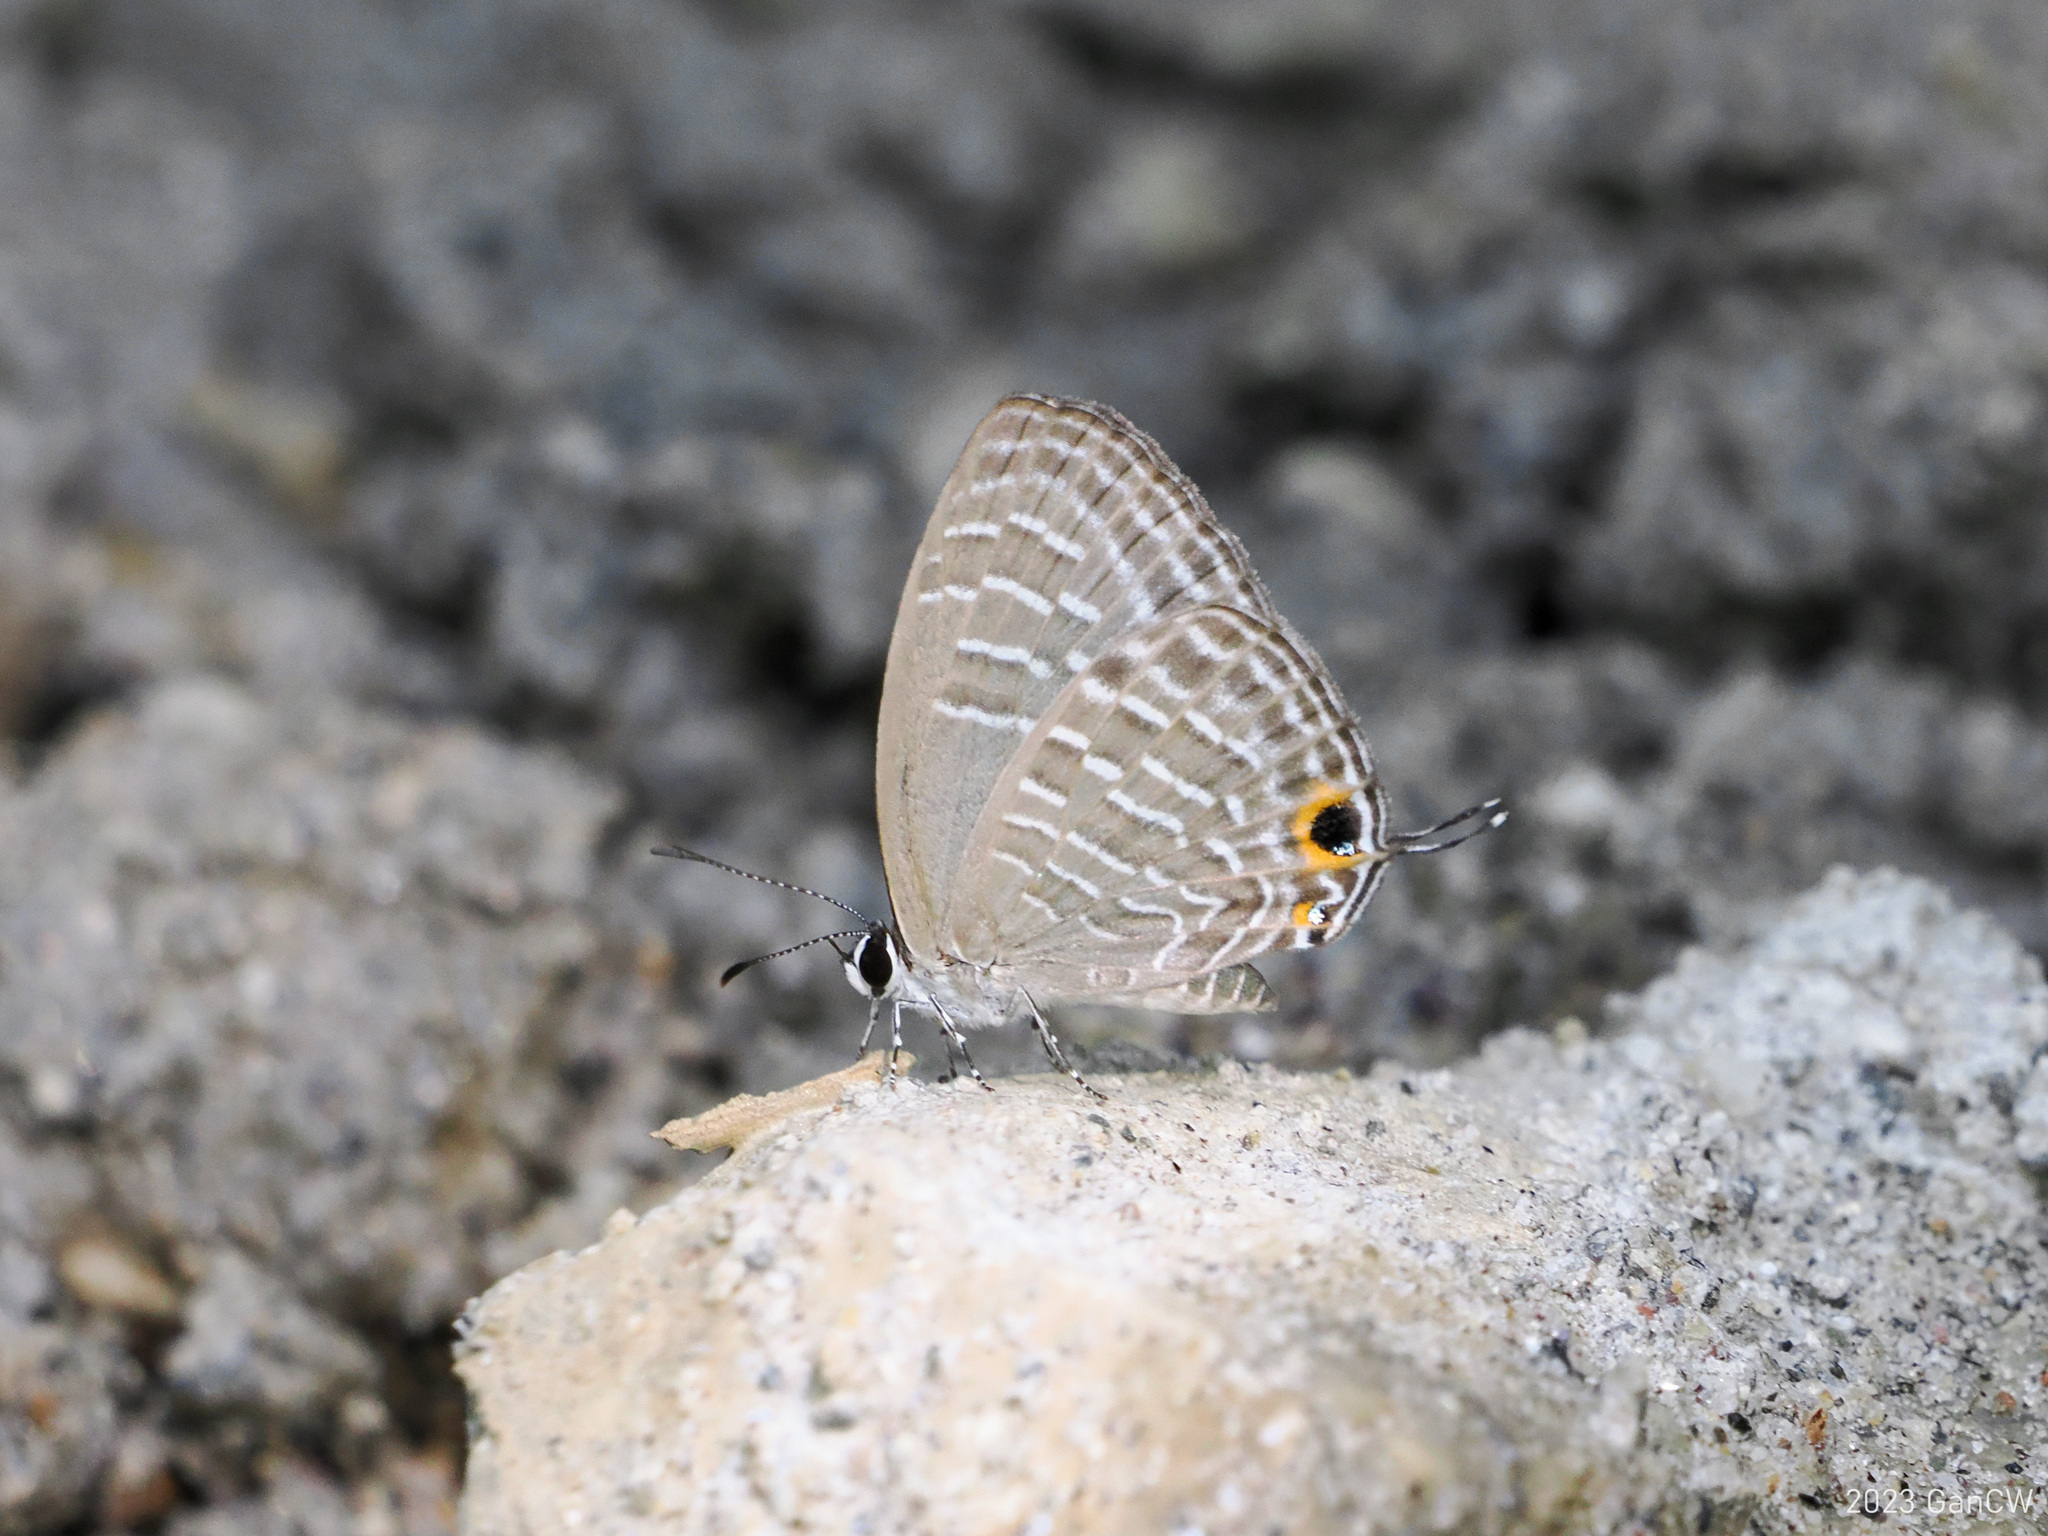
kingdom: Animalia
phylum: Arthropoda
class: Insecta
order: Lepidoptera
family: Lycaenidae
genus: Jamides
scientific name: Jamides elpis
